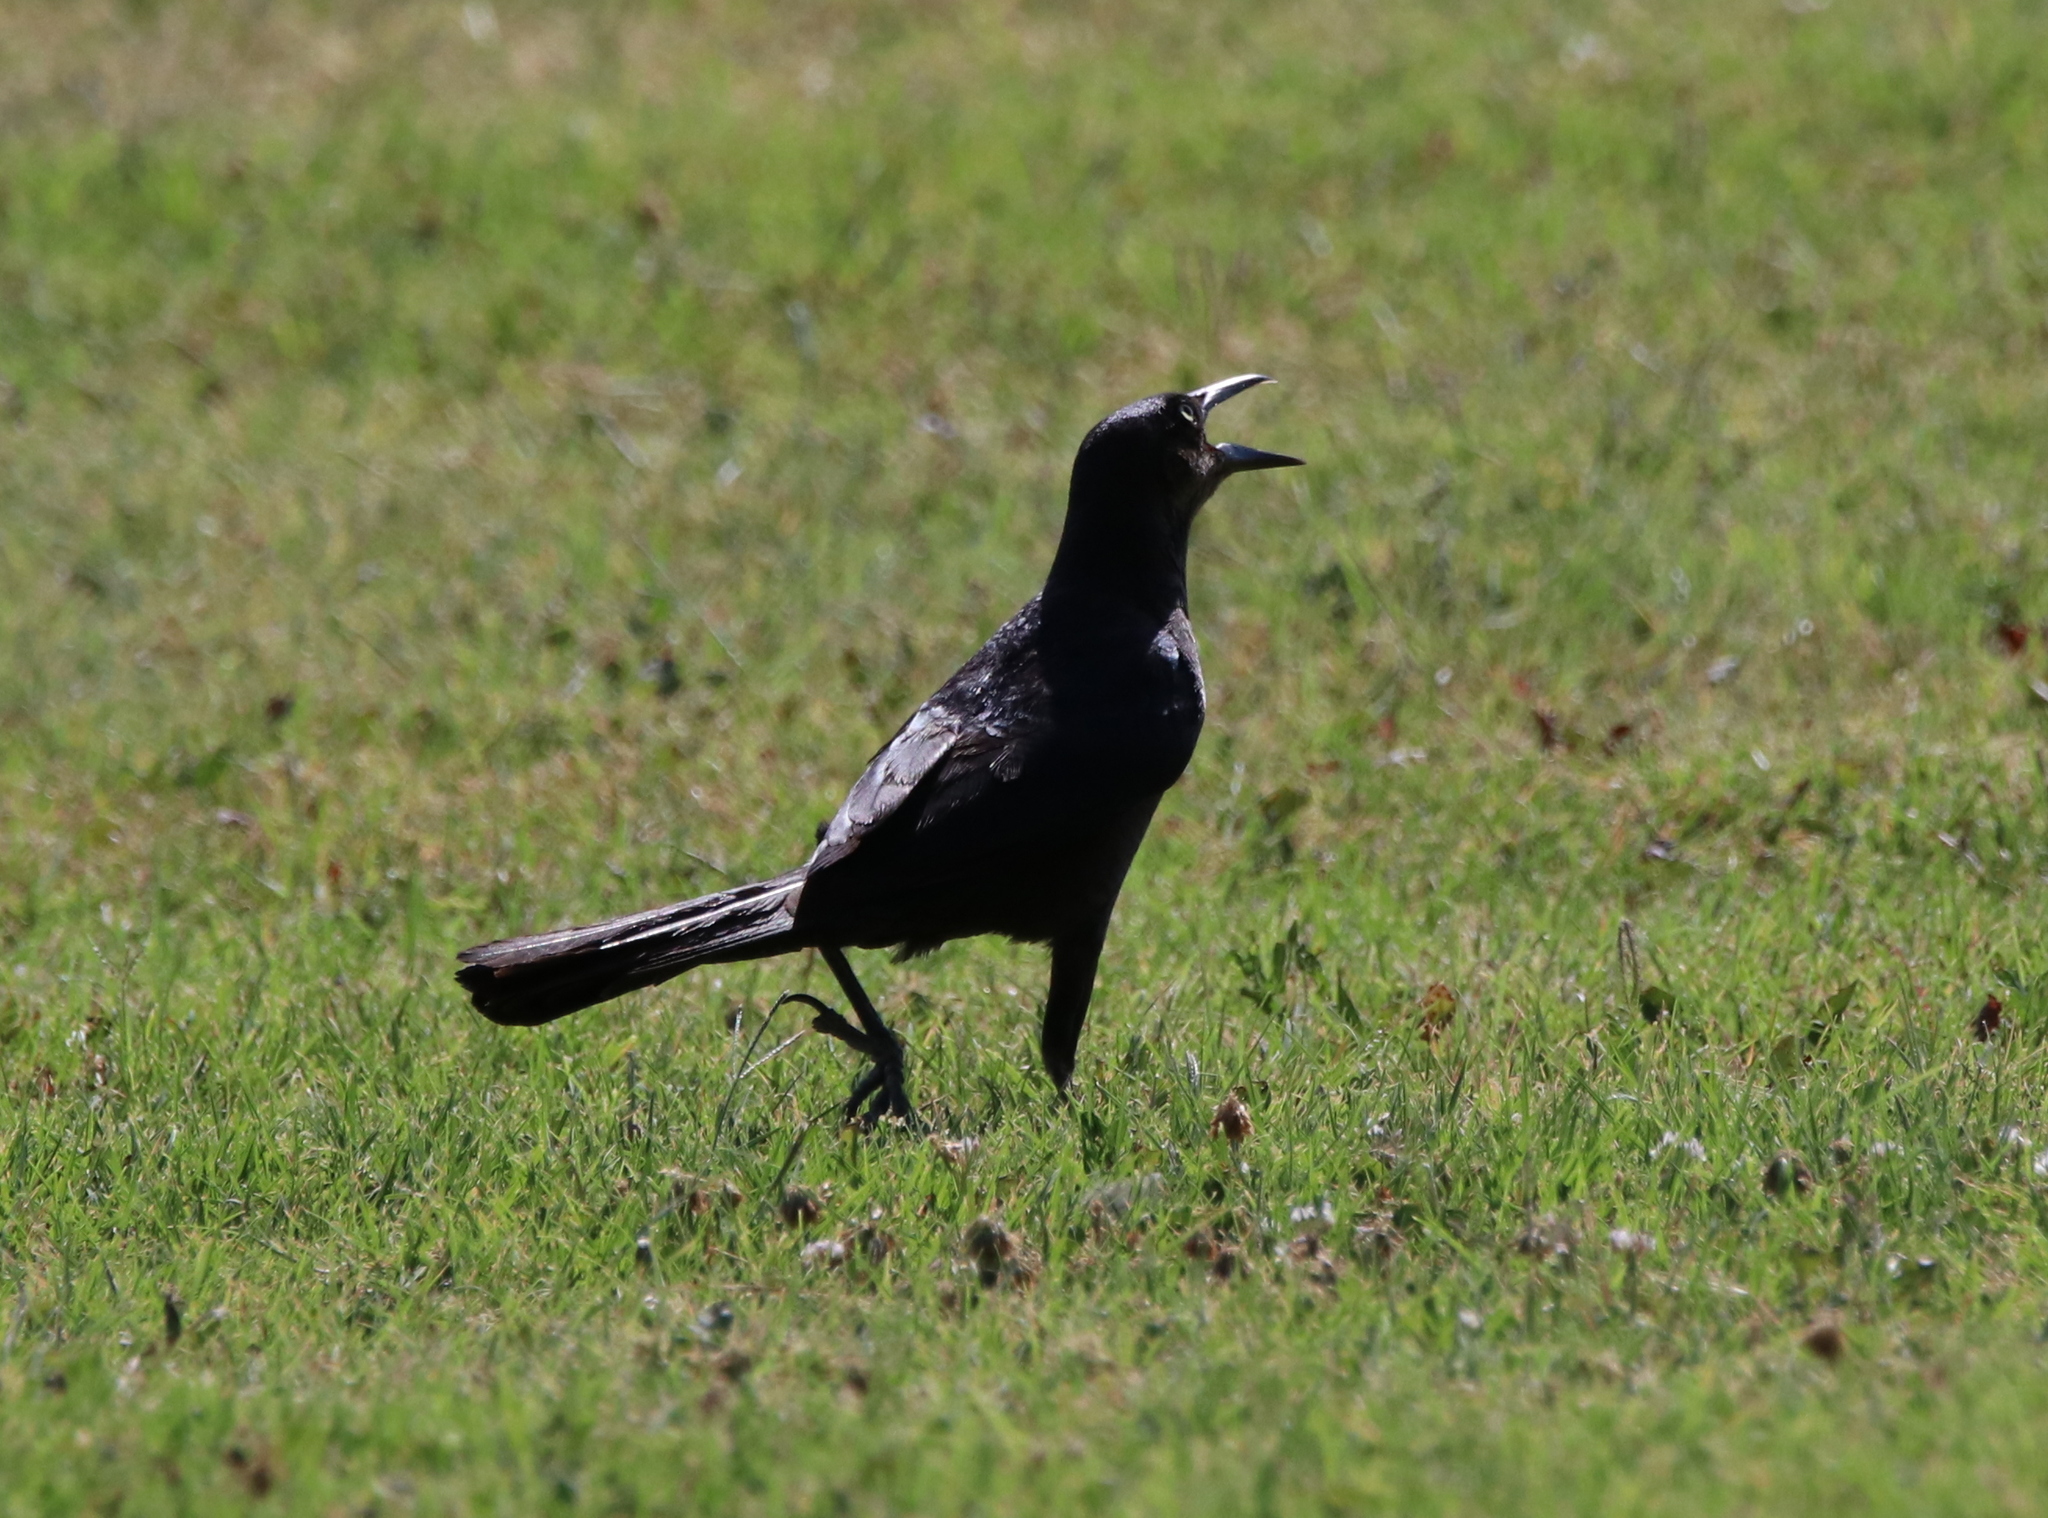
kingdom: Animalia
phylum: Chordata
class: Aves
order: Passeriformes
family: Icteridae
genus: Quiscalus
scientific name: Quiscalus mexicanus
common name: Great-tailed grackle
